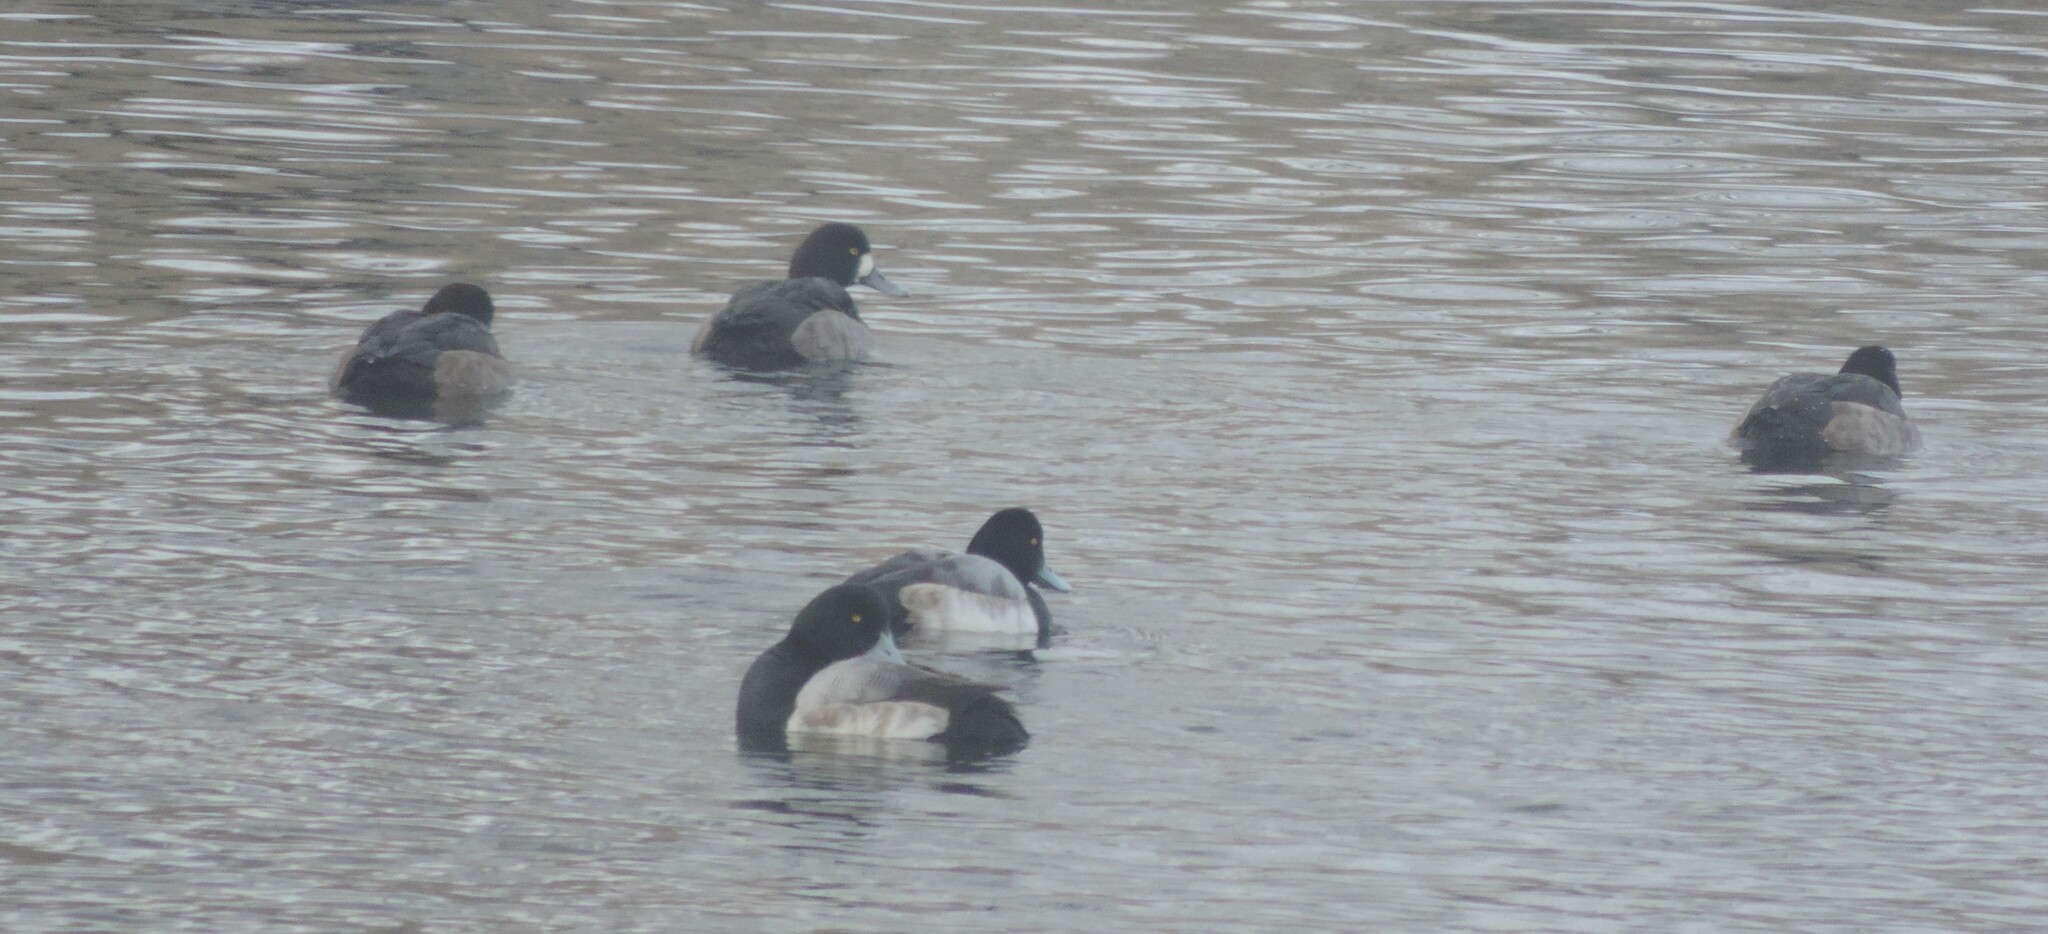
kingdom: Animalia
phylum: Chordata
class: Aves
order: Anseriformes
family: Anatidae
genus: Aythya
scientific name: Aythya marila
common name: Greater scaup
